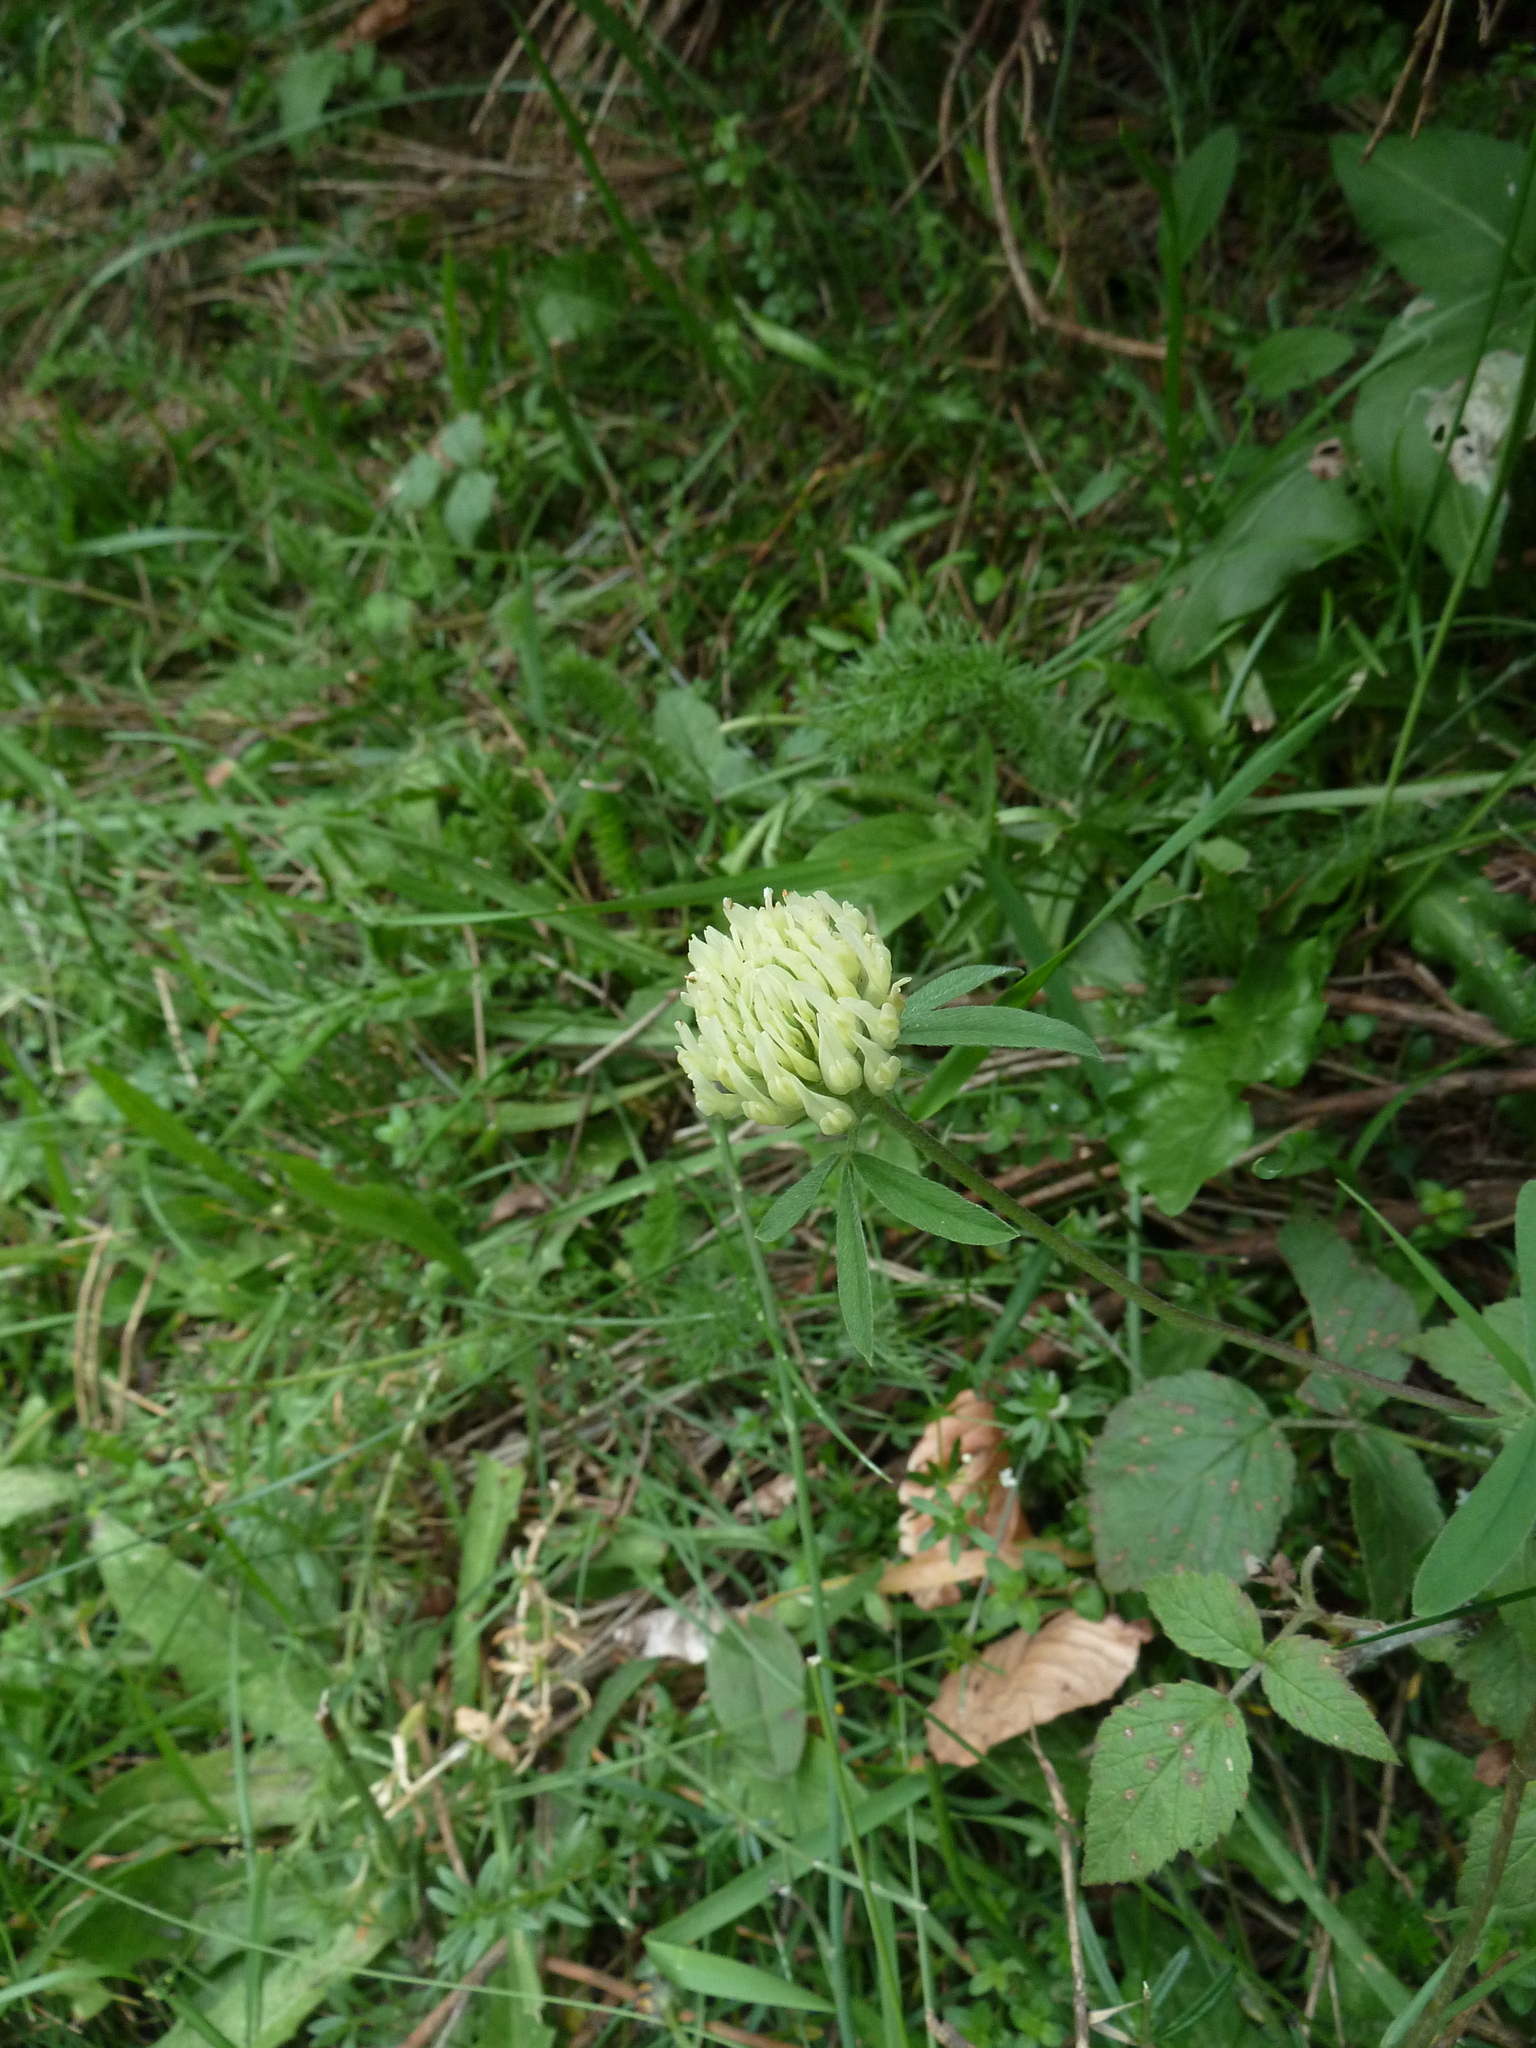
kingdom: Plantae
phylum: Tracheophyta
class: Magnoliopsida
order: Fabales
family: Fabaceae
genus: Trifolium
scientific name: Trifolium ochroleucon
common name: Sulphur clover
